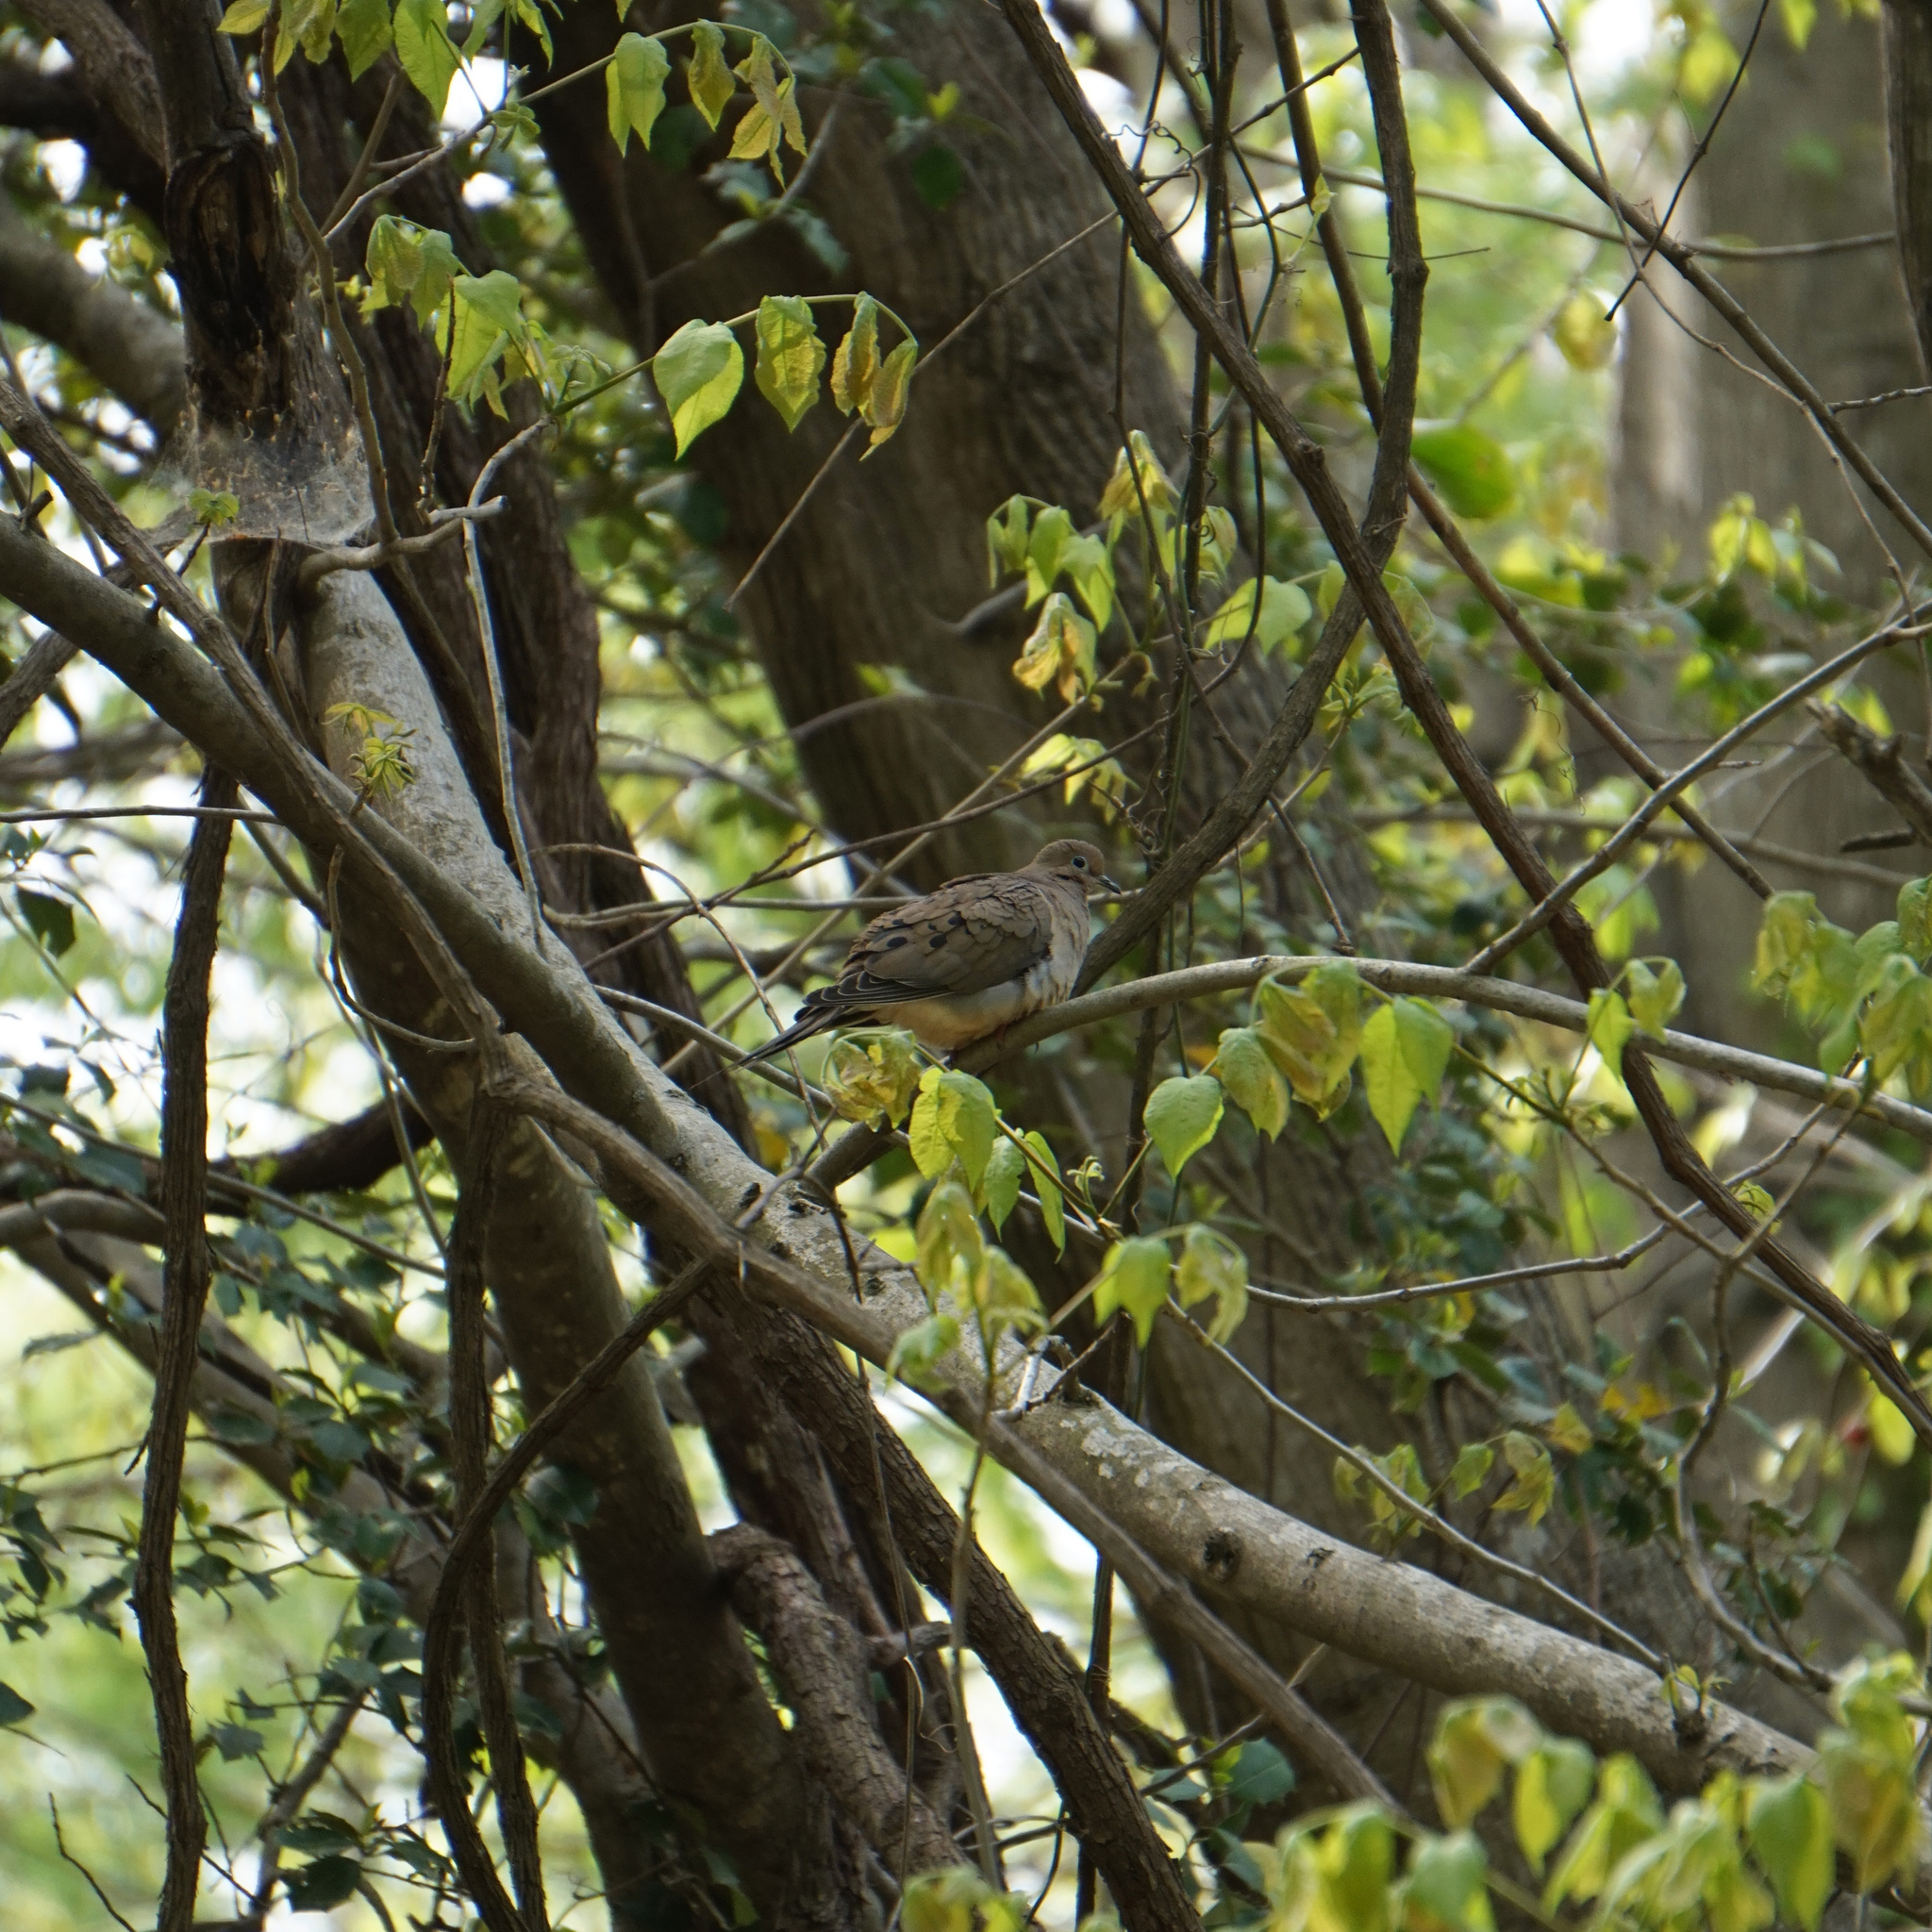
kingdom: Animalia
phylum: Chordata
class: Aves
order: Columbiformes
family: Columbidae
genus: Zenaida
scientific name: Zenaida macroura
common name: Mourning dove
